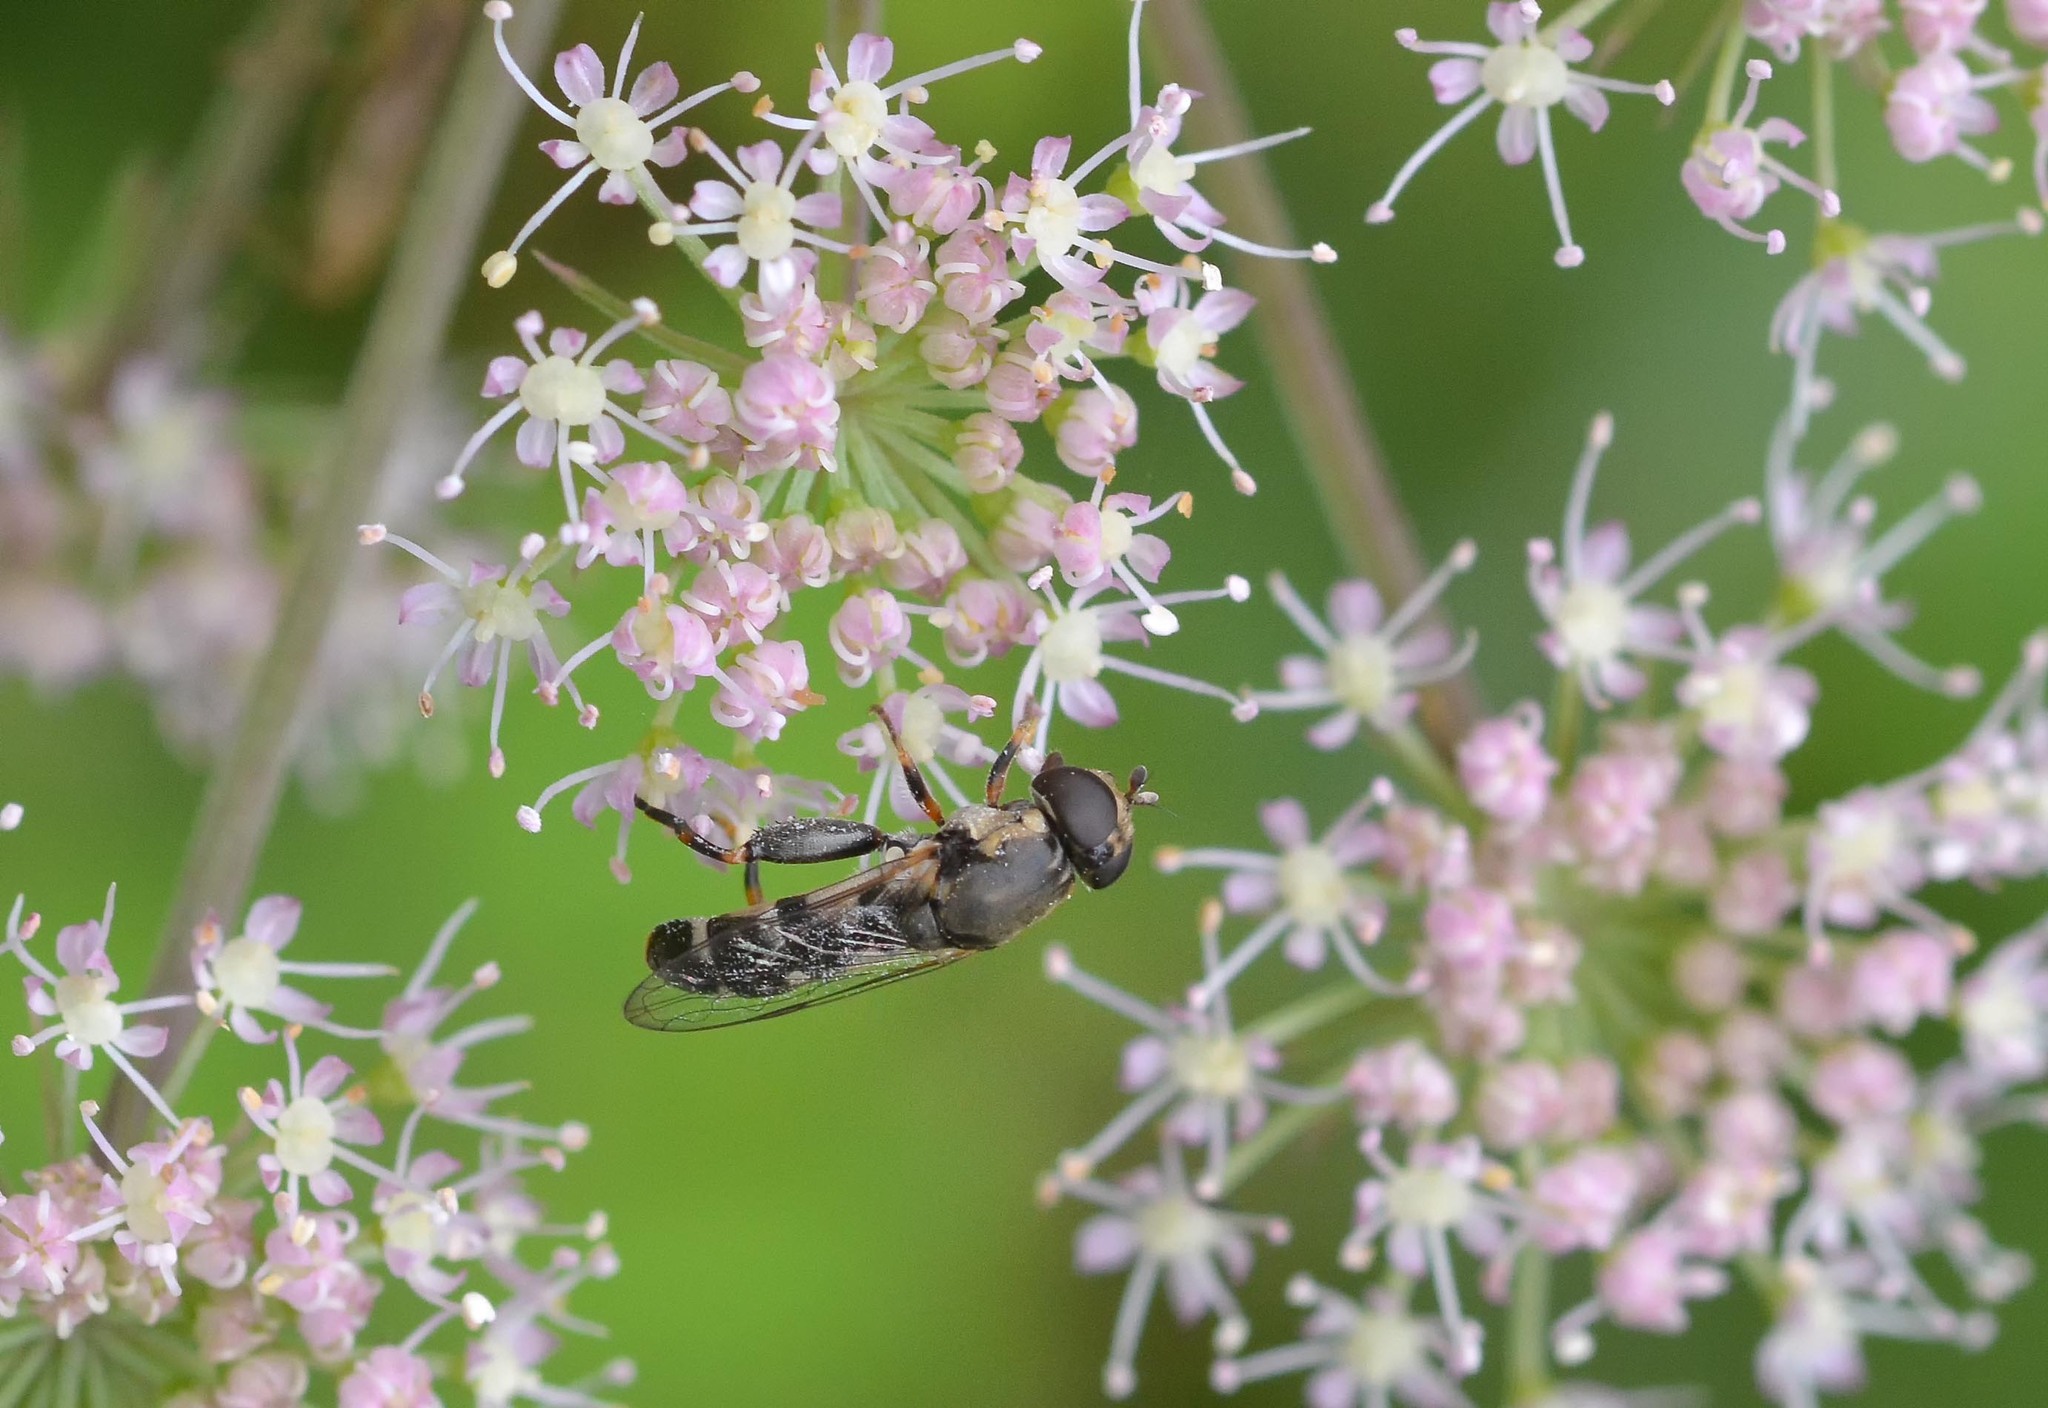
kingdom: Animalia
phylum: Arthropoda
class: Insecta
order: Diptera
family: Syrphidae
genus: Syritta
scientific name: Syritta pipiens
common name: Hover fly
